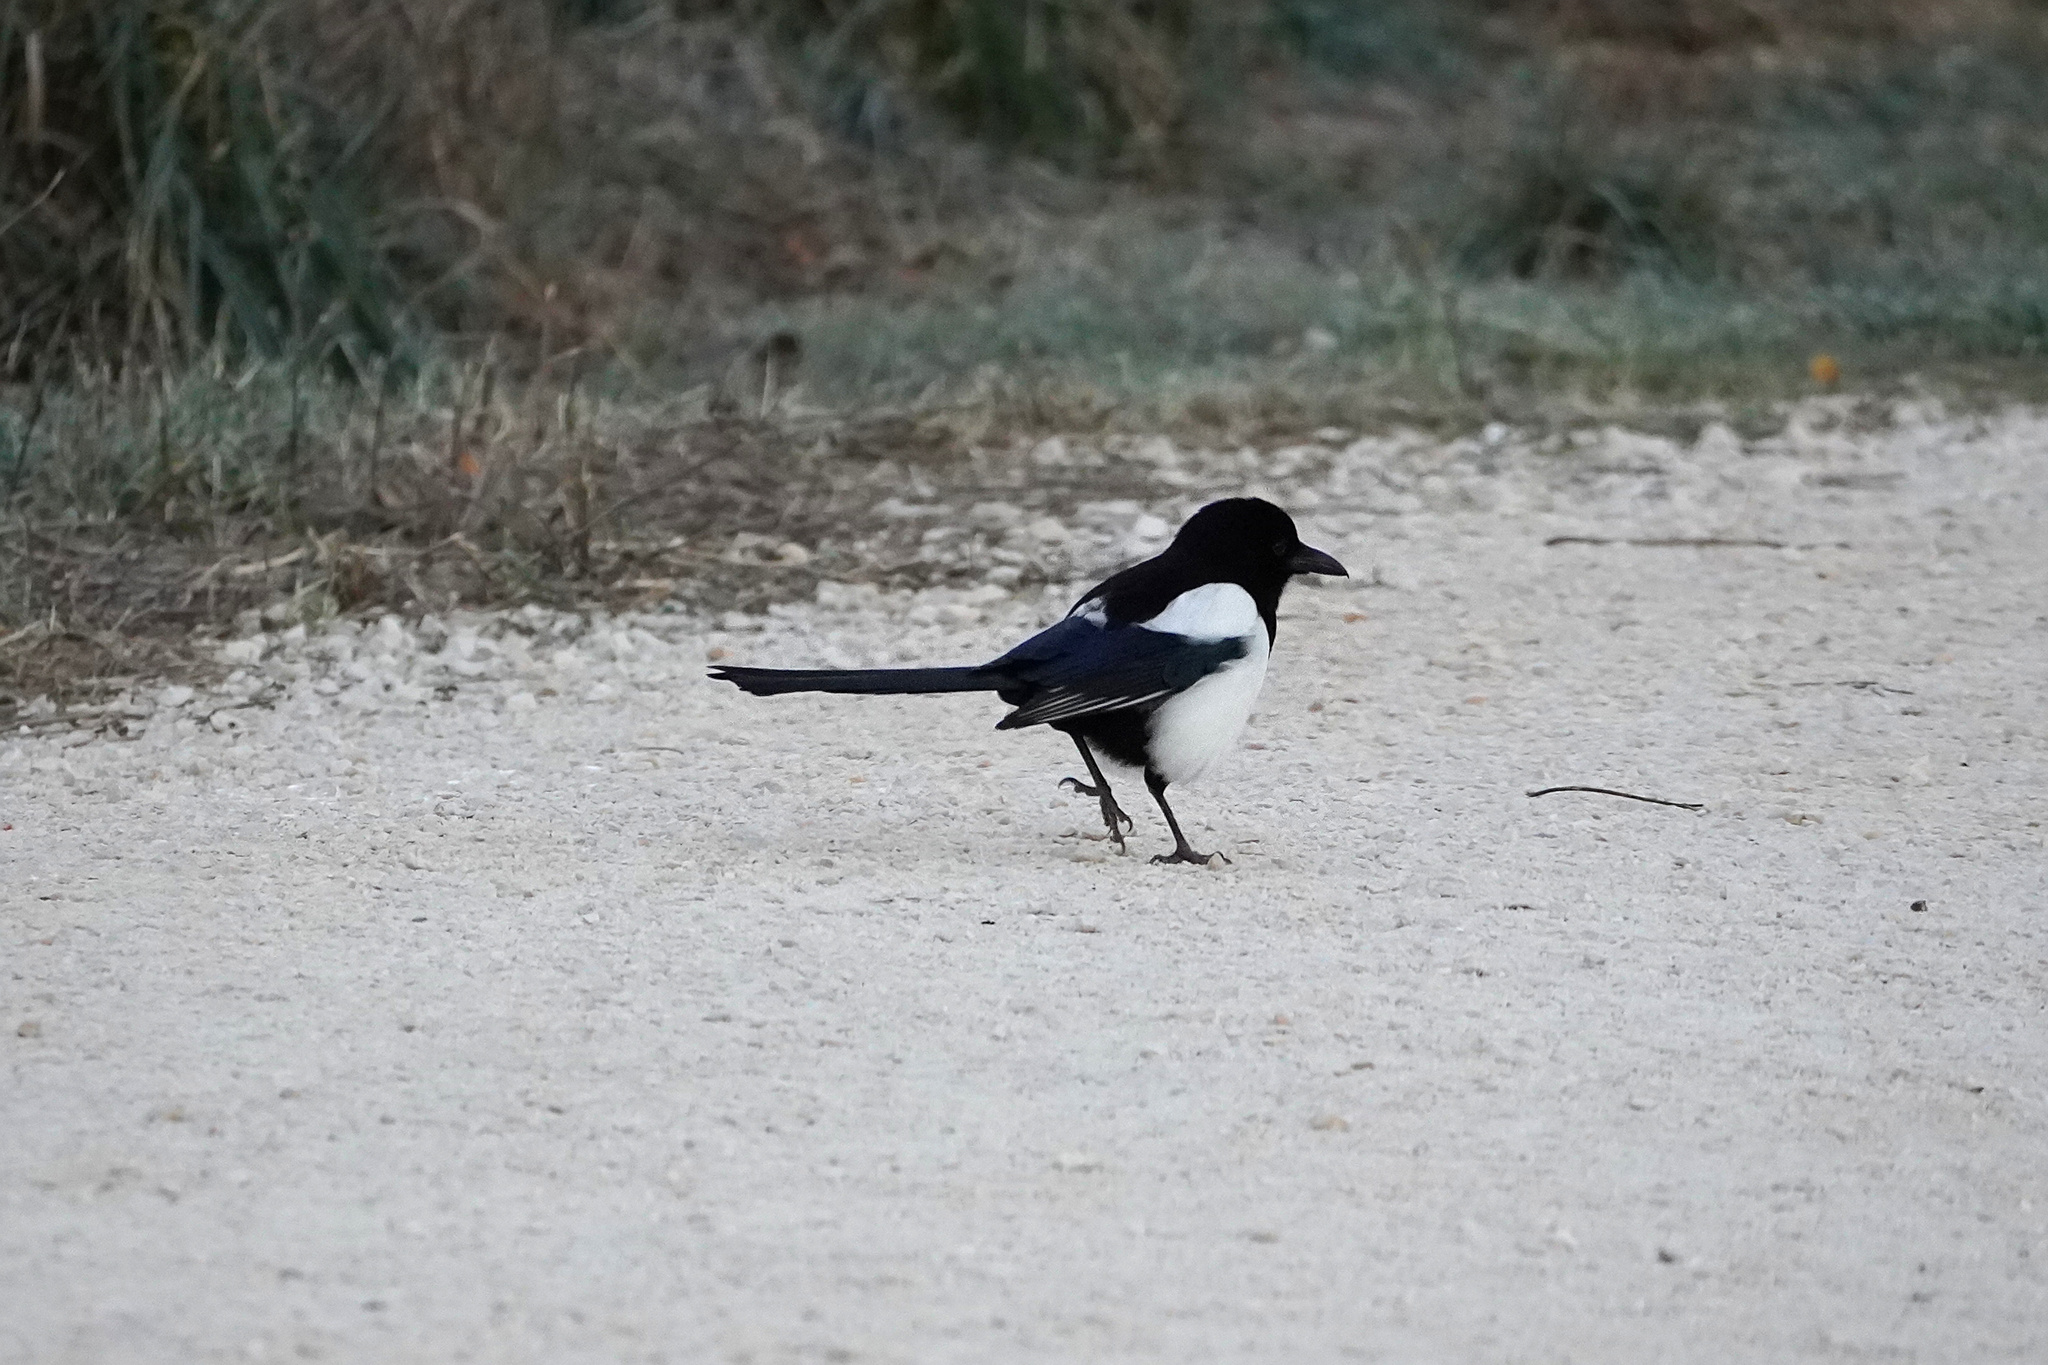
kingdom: Animalia
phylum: Chordata
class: Aves
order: Passeriformes
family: Corvidae
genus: Pica
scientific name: Pica pica
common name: Eurasian magpie
